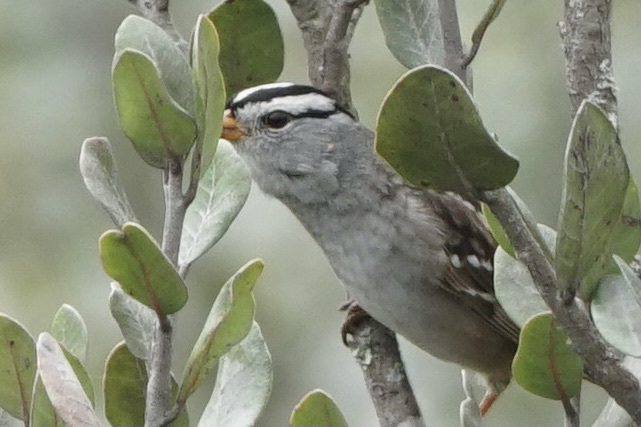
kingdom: Animalia
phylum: Chordata
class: Aves
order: Passeriformes
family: Passerellidae
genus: Zonotrichia
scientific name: Zonotrichia leucophrys
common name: White-crowned sparrow
